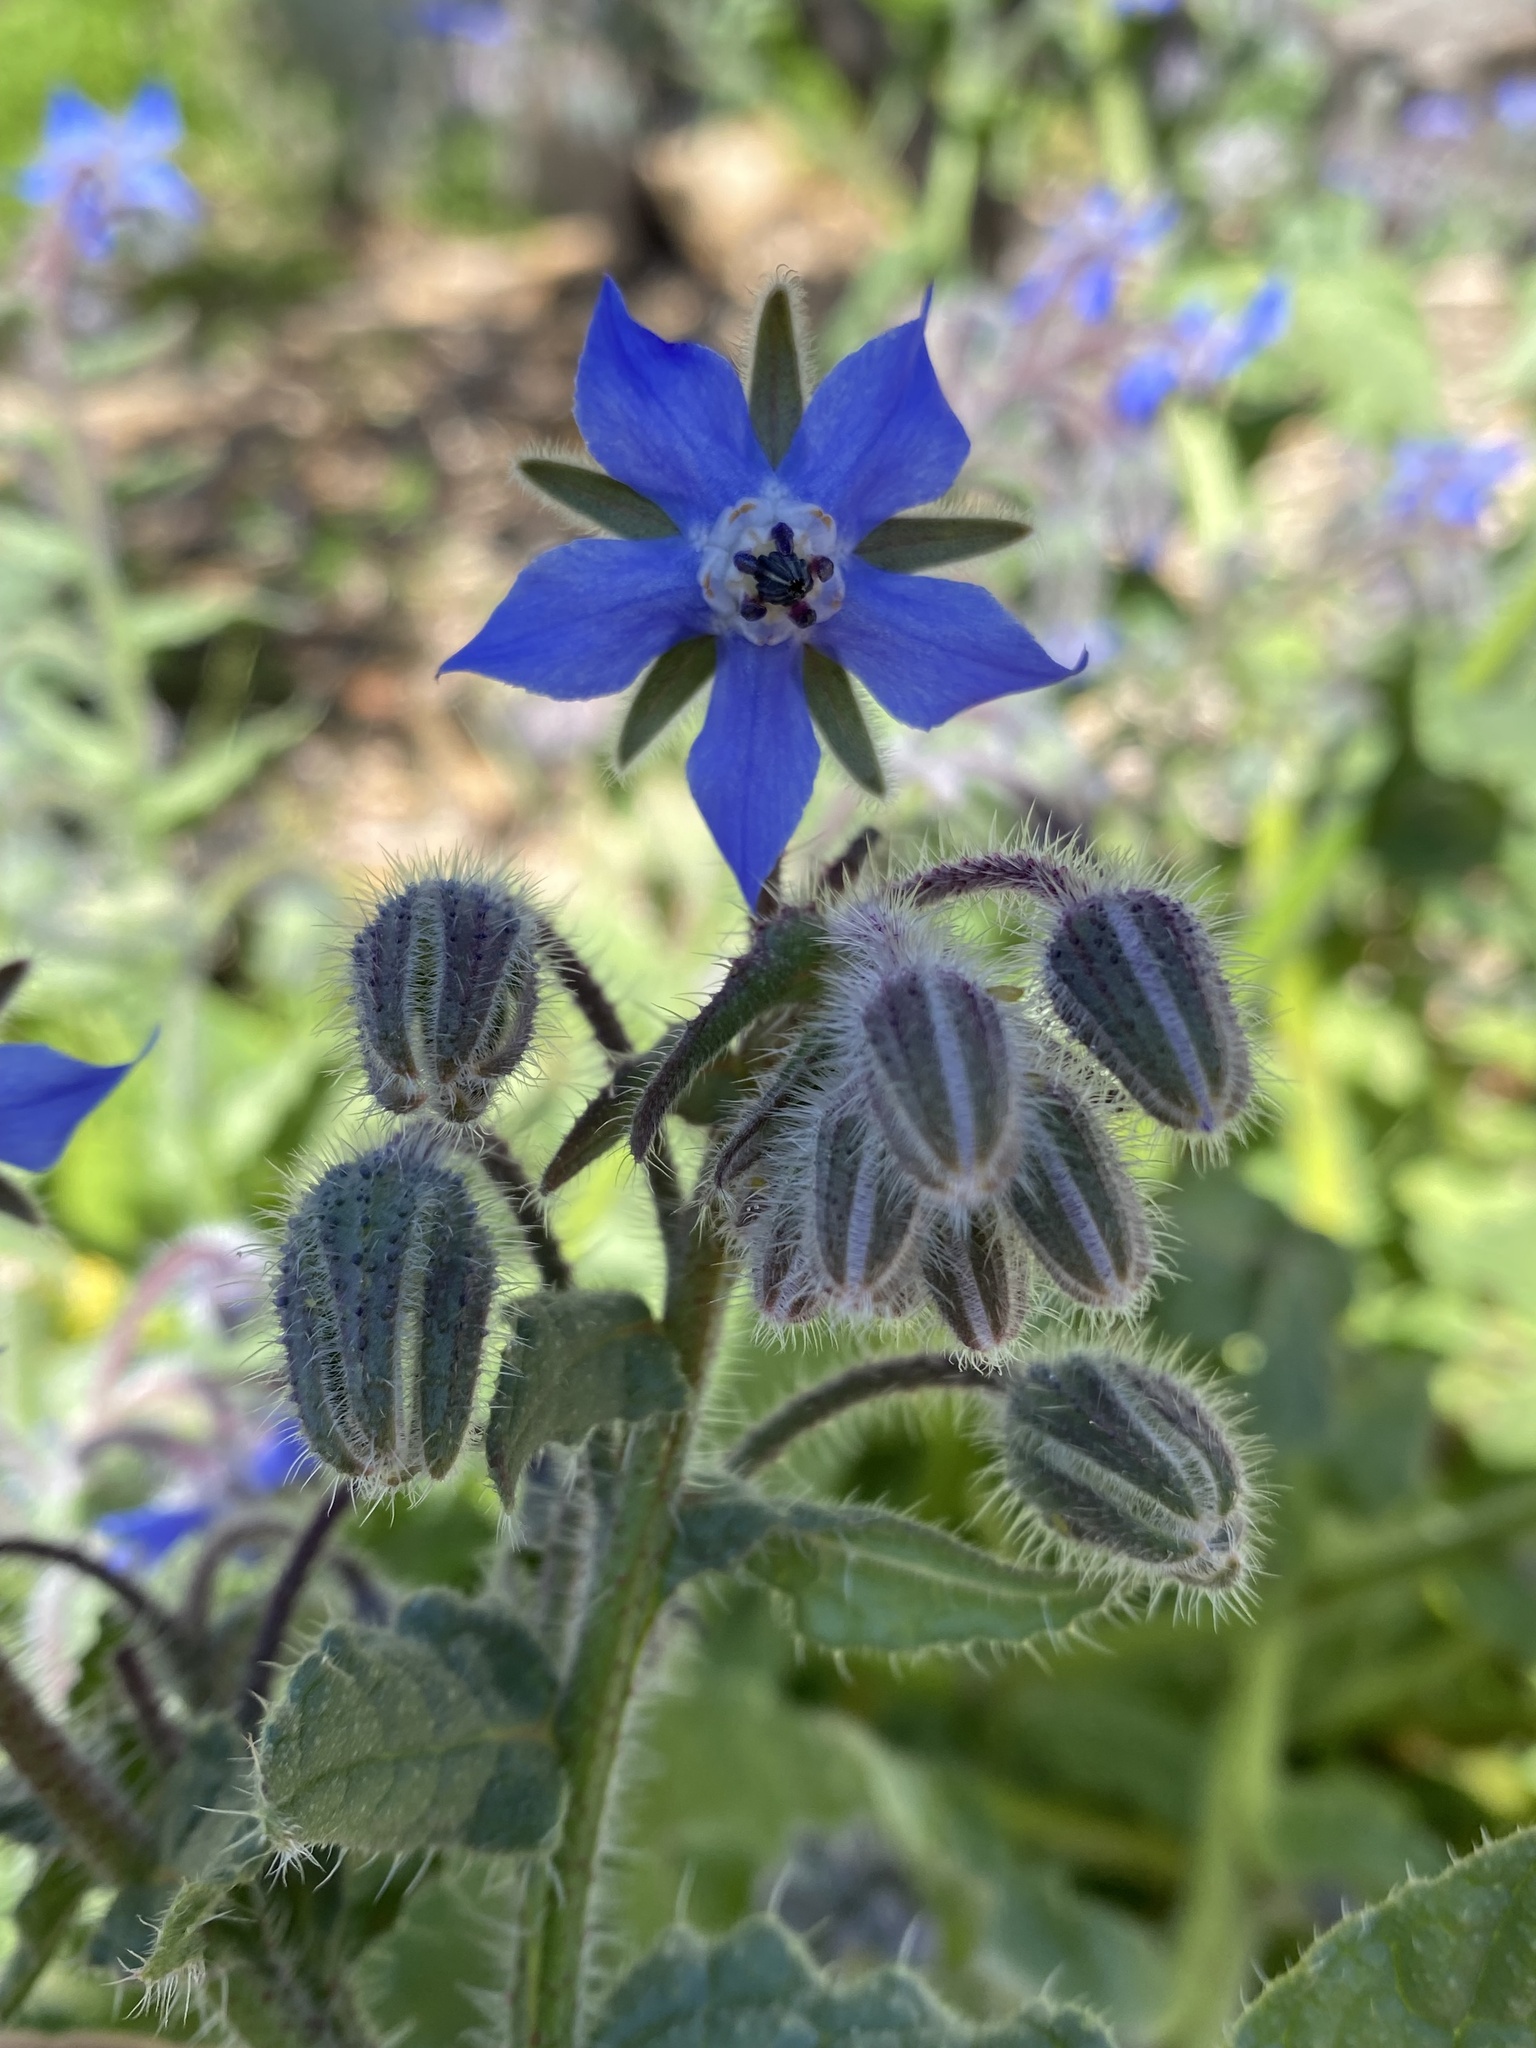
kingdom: Plantae
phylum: Tracheophyta
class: Magnoliopsida
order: Boraginales
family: Boraginaceae
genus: Borago
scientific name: Borago officinalis
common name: Borage
